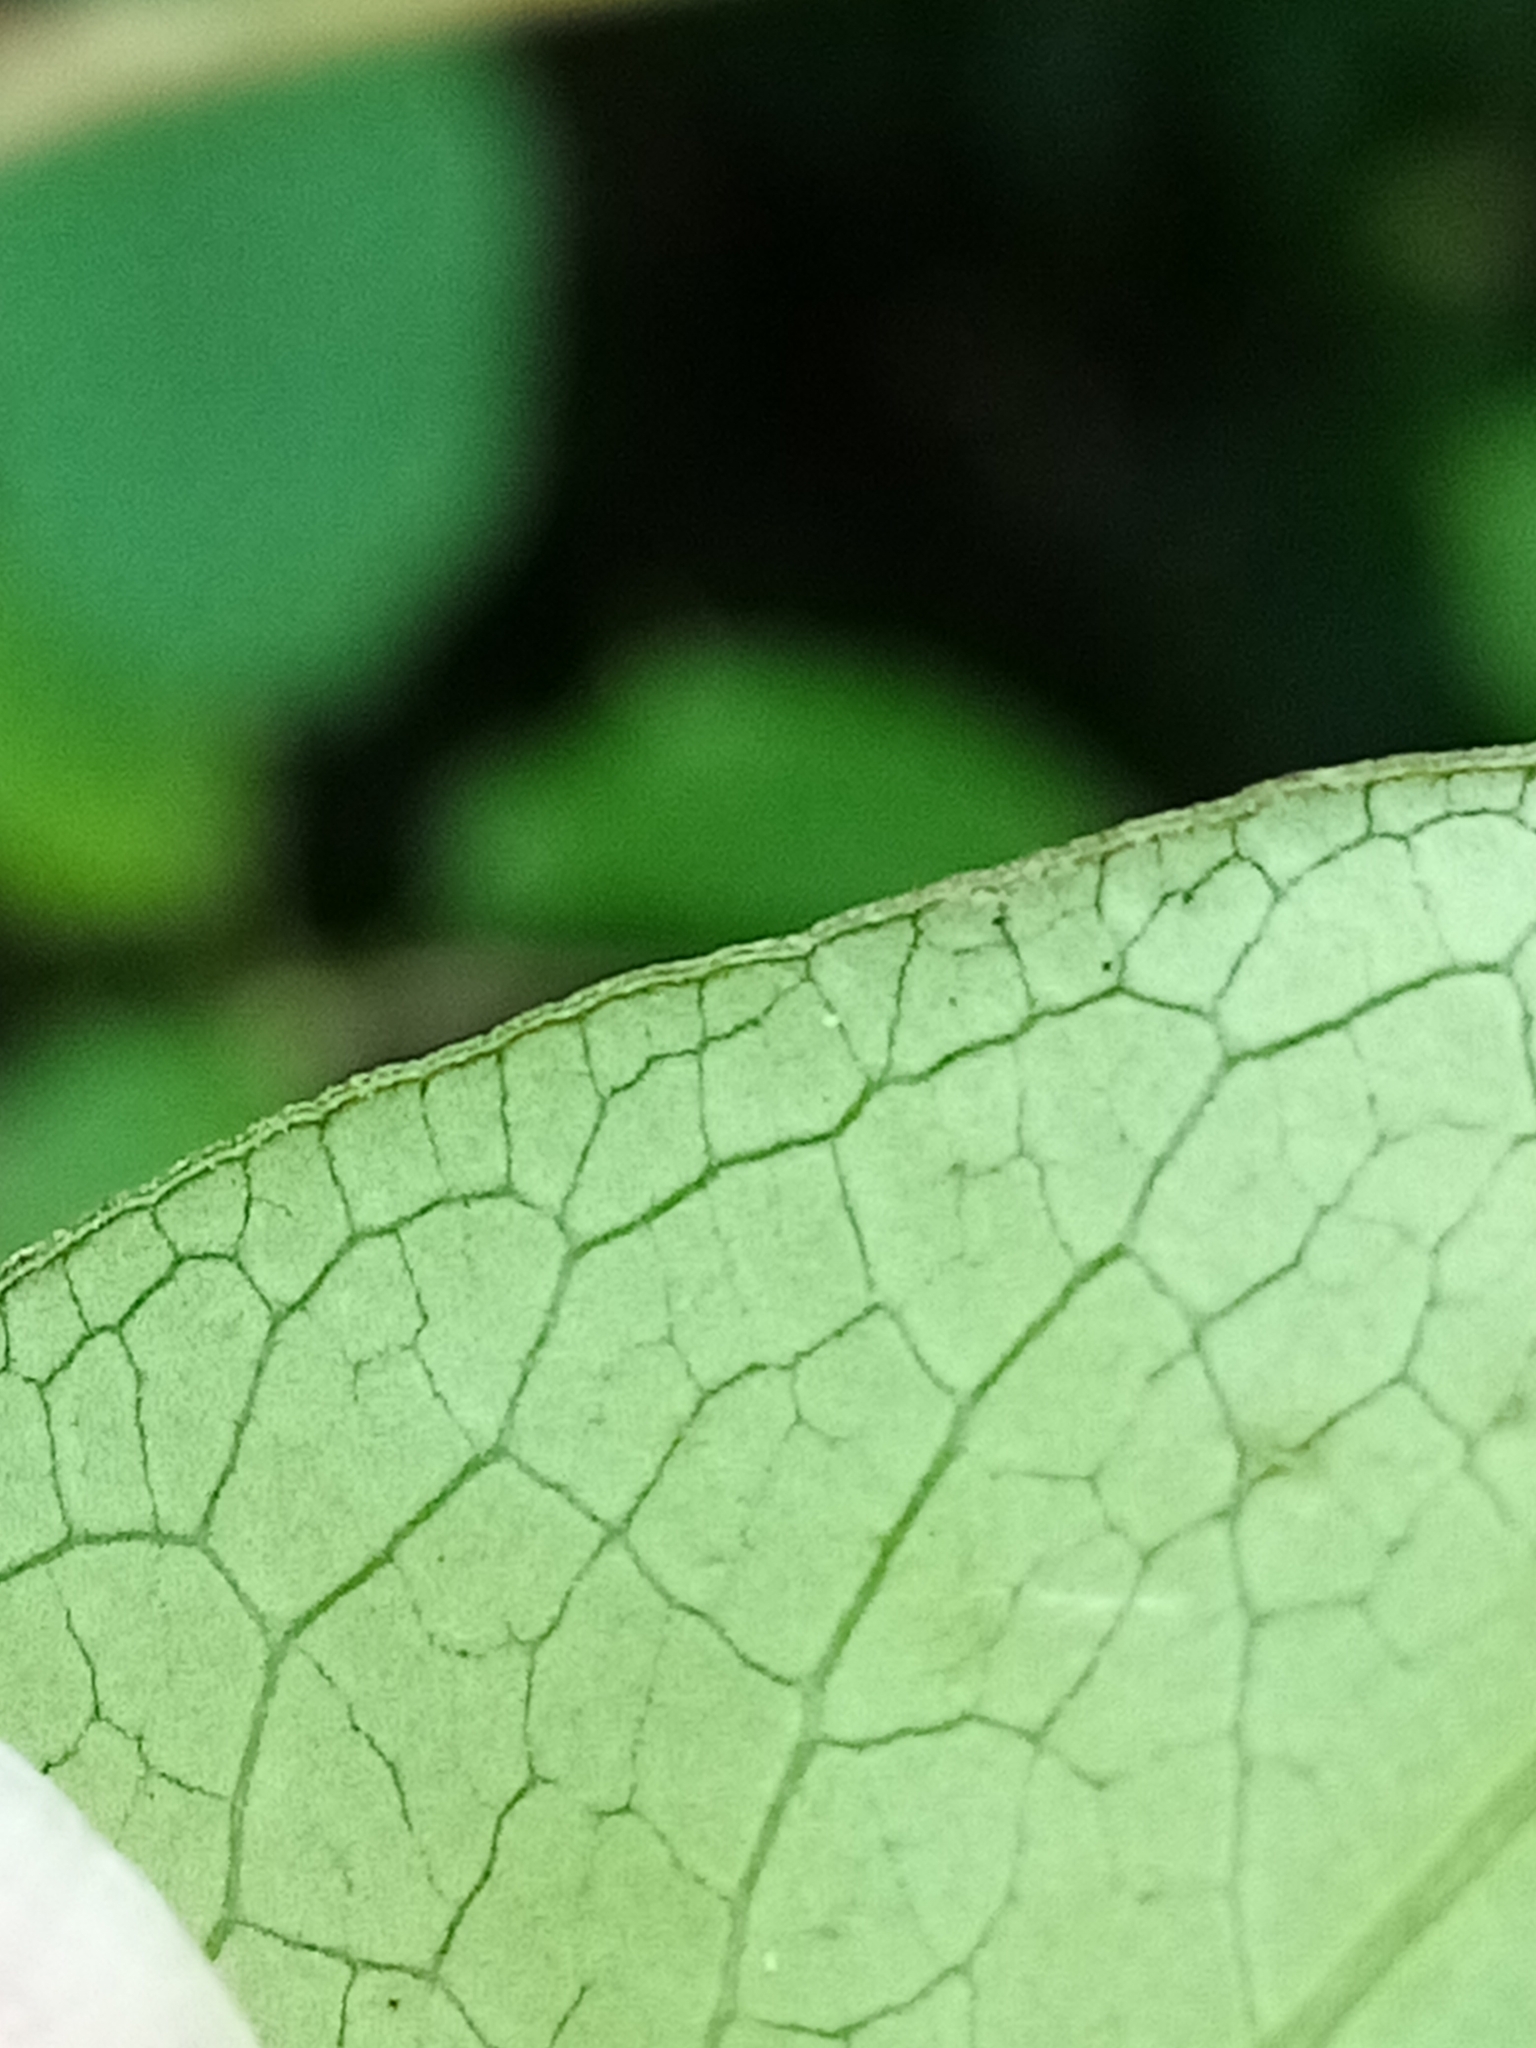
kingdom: Plantae
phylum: Tracheophyta
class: Magnoliopsida
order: Gentianales
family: Rubiaceae
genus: Coprosma
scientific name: Coprosma robusta
